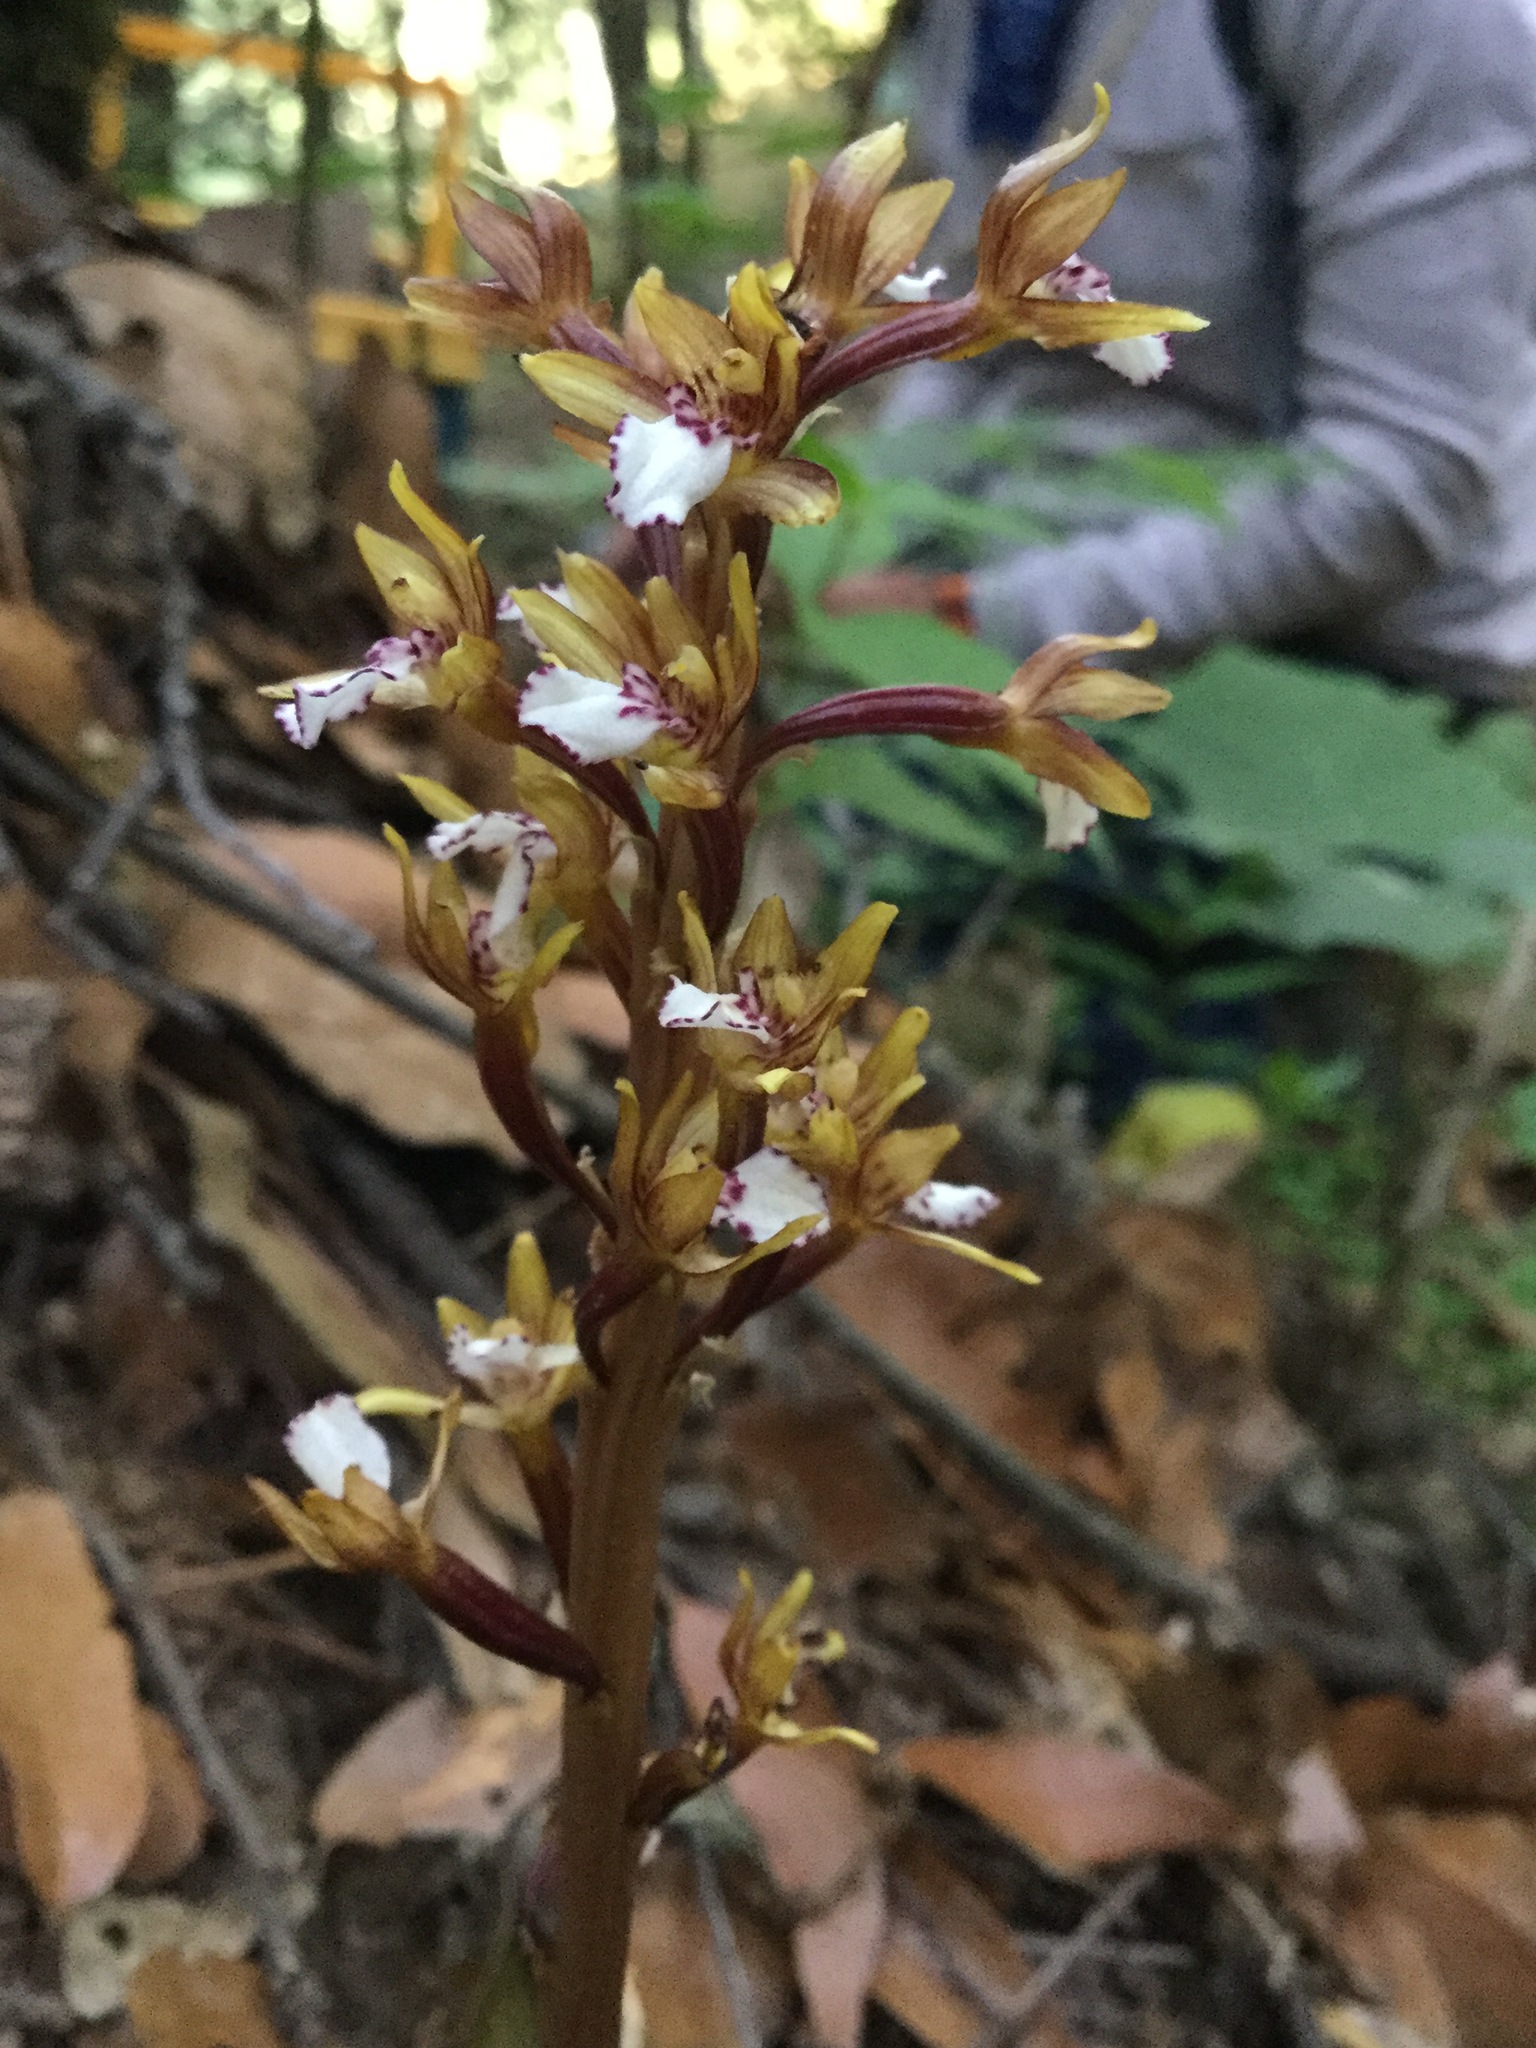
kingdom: Plantae
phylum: Tracheophyta
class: Liliopsida
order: Asparagales
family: Orchidaceae
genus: Corallorhiza
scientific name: Corallorhiza maculata
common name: Spotted coralroot
